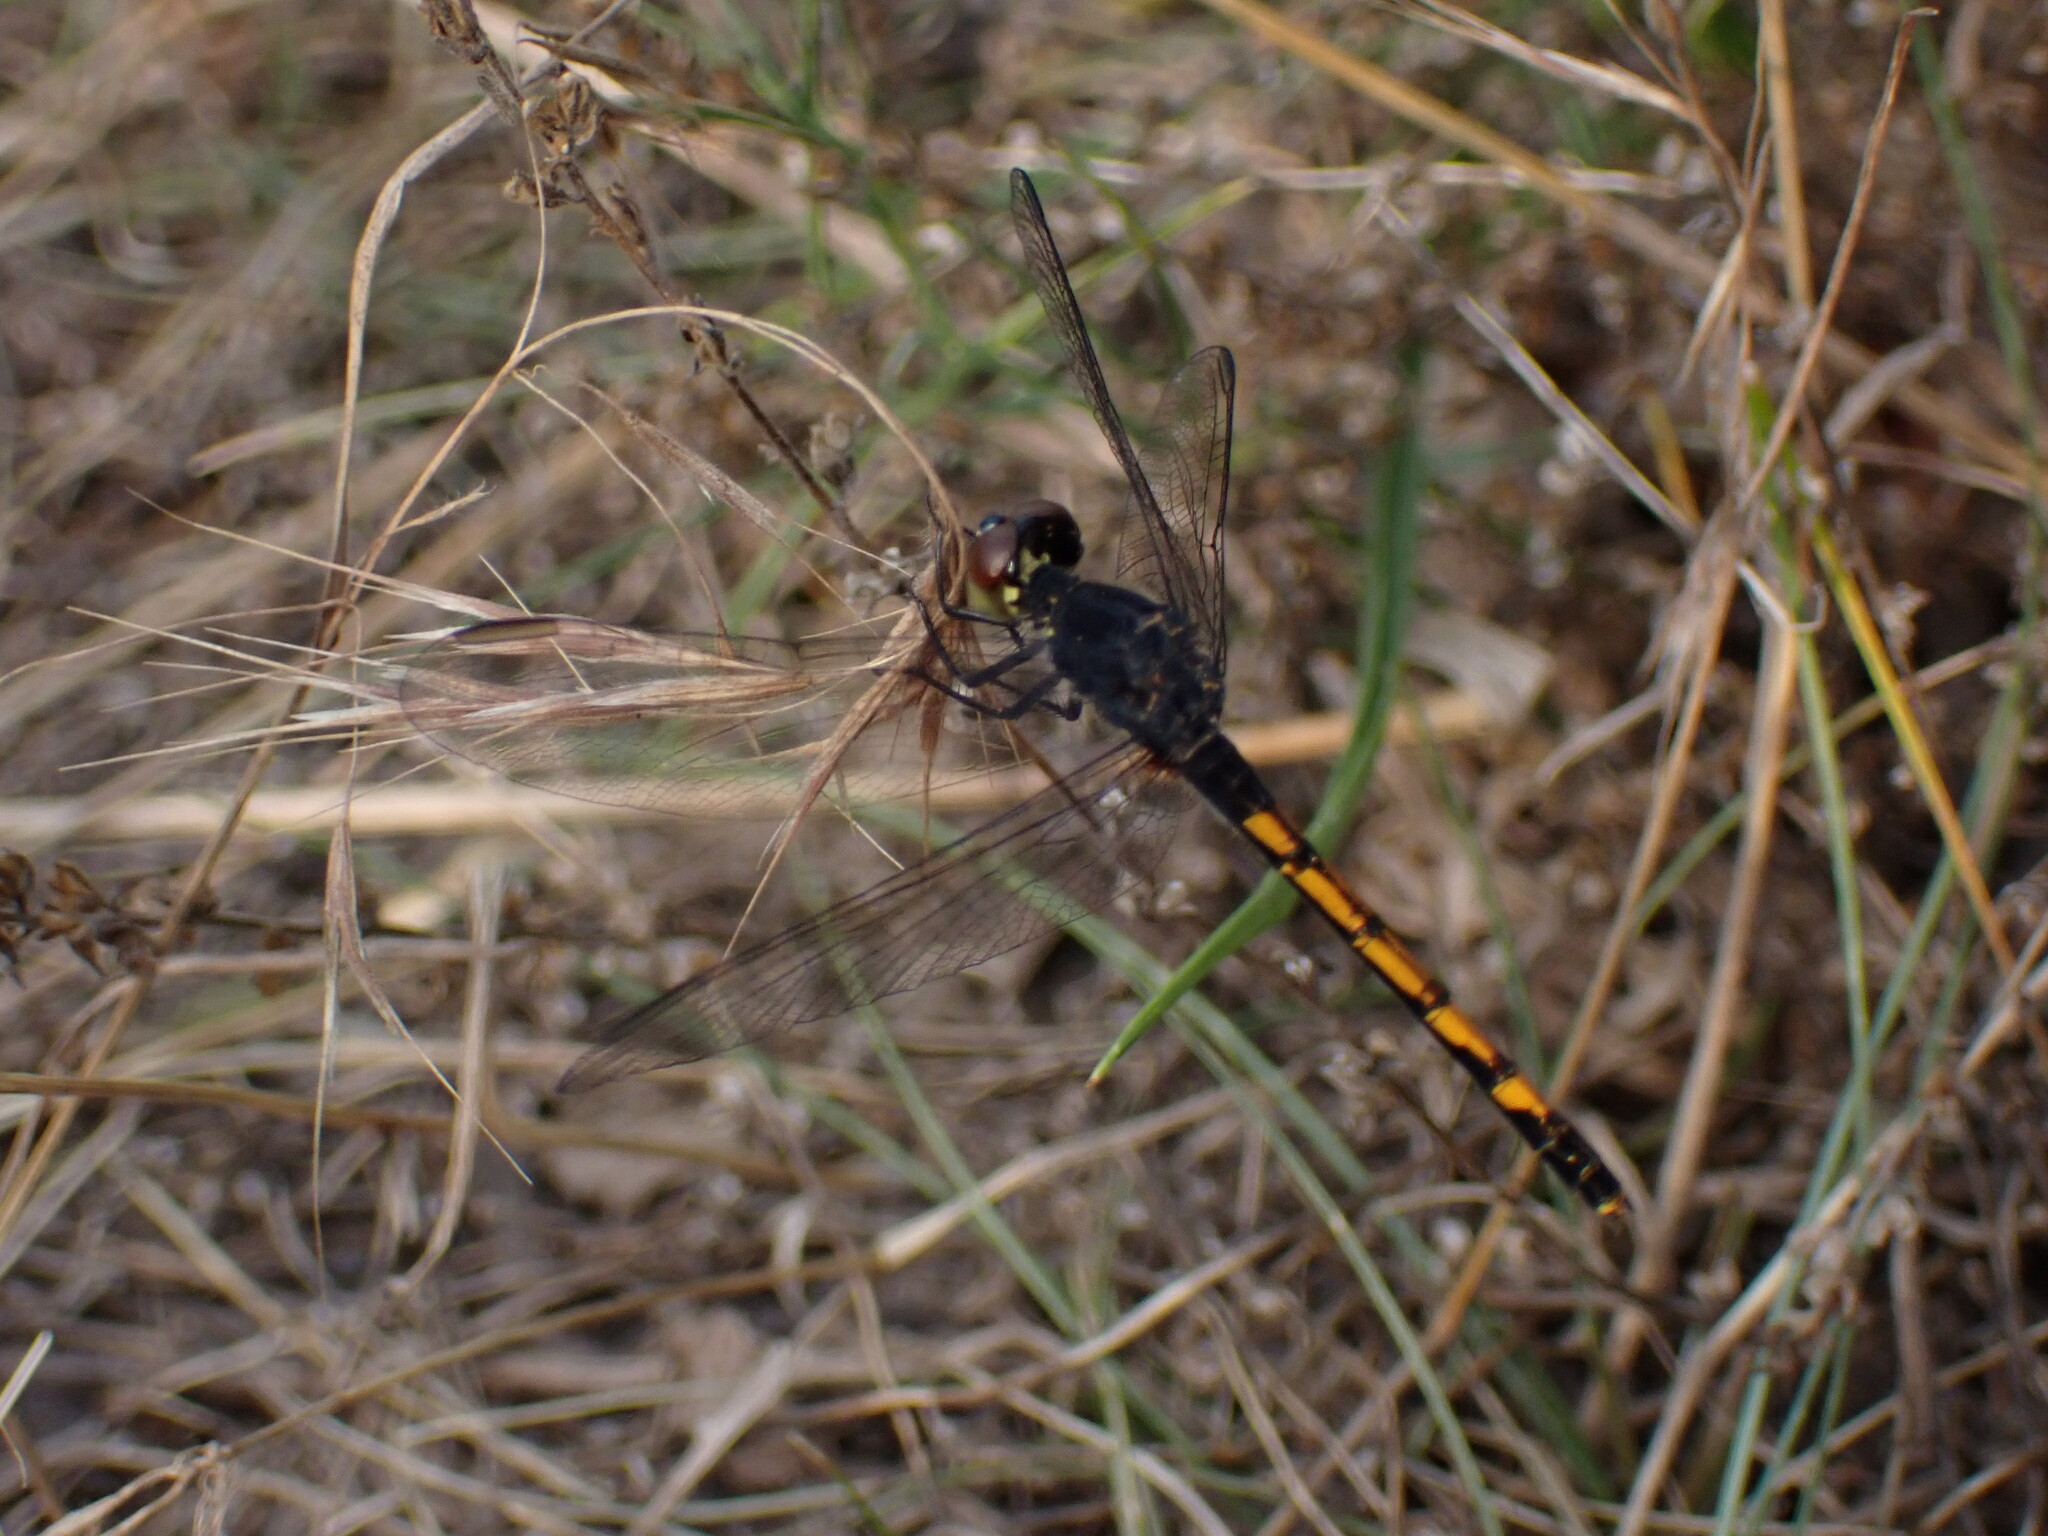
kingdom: Animalia
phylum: Arthropoda
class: Insecta
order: Odonata
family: Libellulidae
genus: Erythrodiplax
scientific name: Erythrodiplax berenice
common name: Seaside dragonlet
